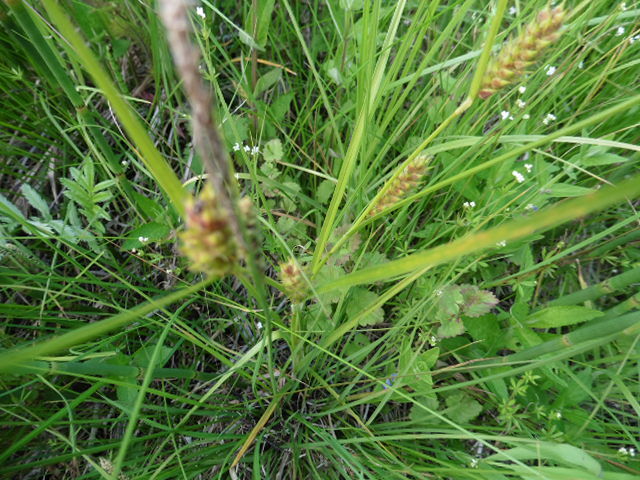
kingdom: Plantae
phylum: Tracheophyta
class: Liliopsida
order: Poales
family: Cyperaceae
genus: Carex
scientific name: Carex hirta
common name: Hairy sedge
